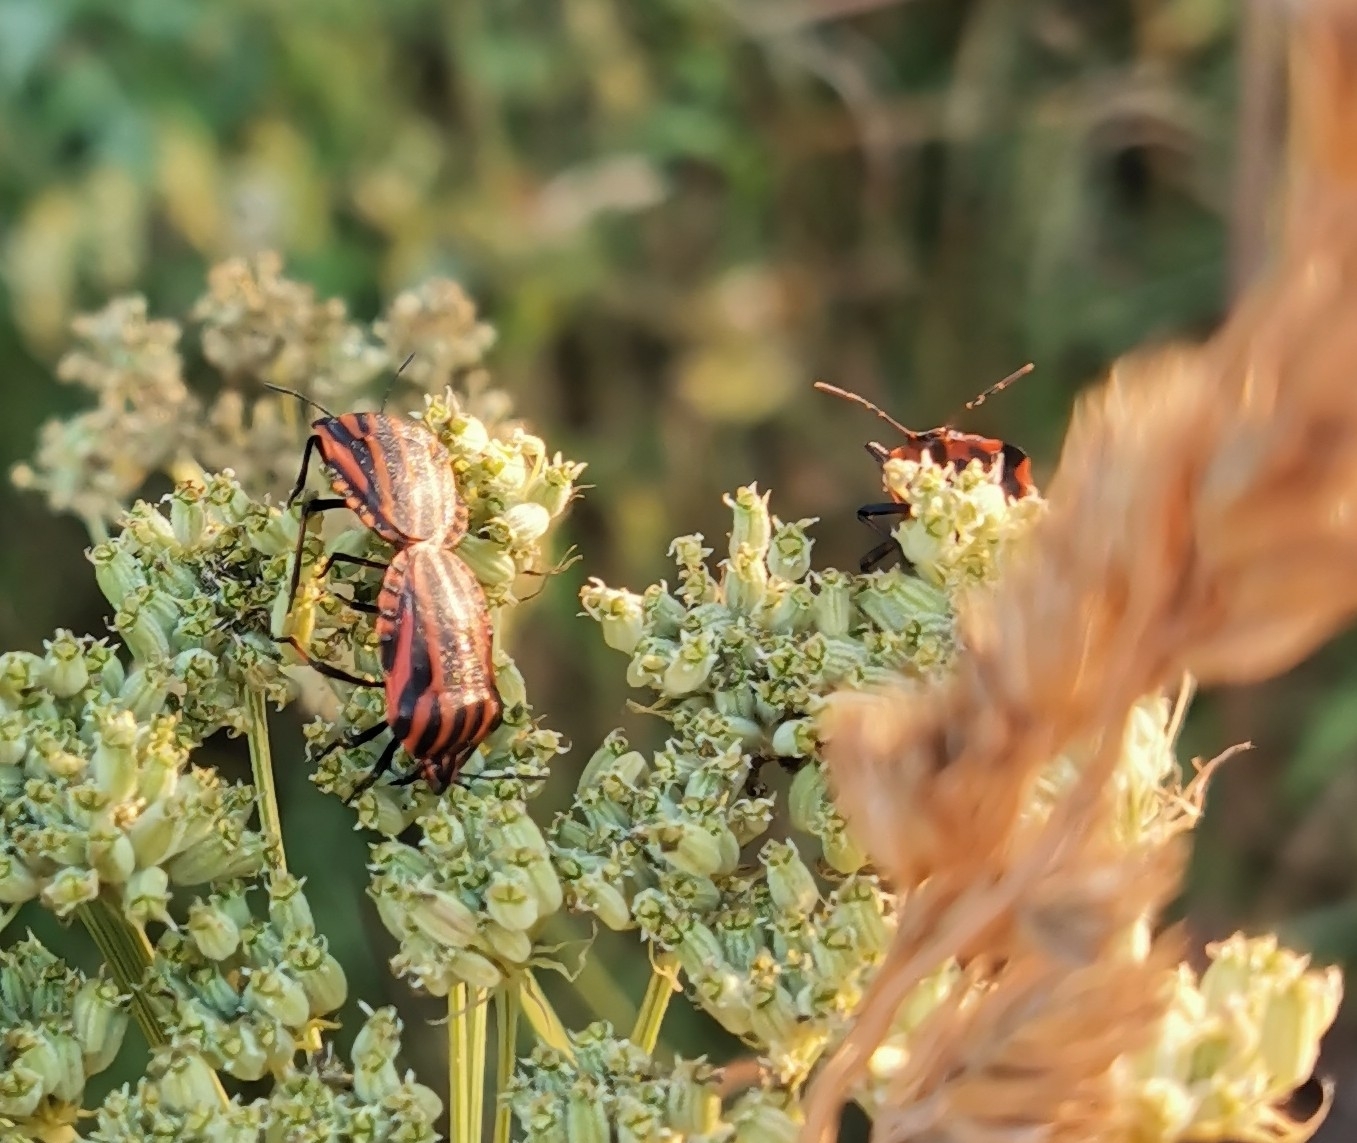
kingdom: Animalia
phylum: Arthropoda
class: Insecta
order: Hemiptera
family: Pentatomidae
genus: Graphosoma
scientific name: Graphosoma italicum
